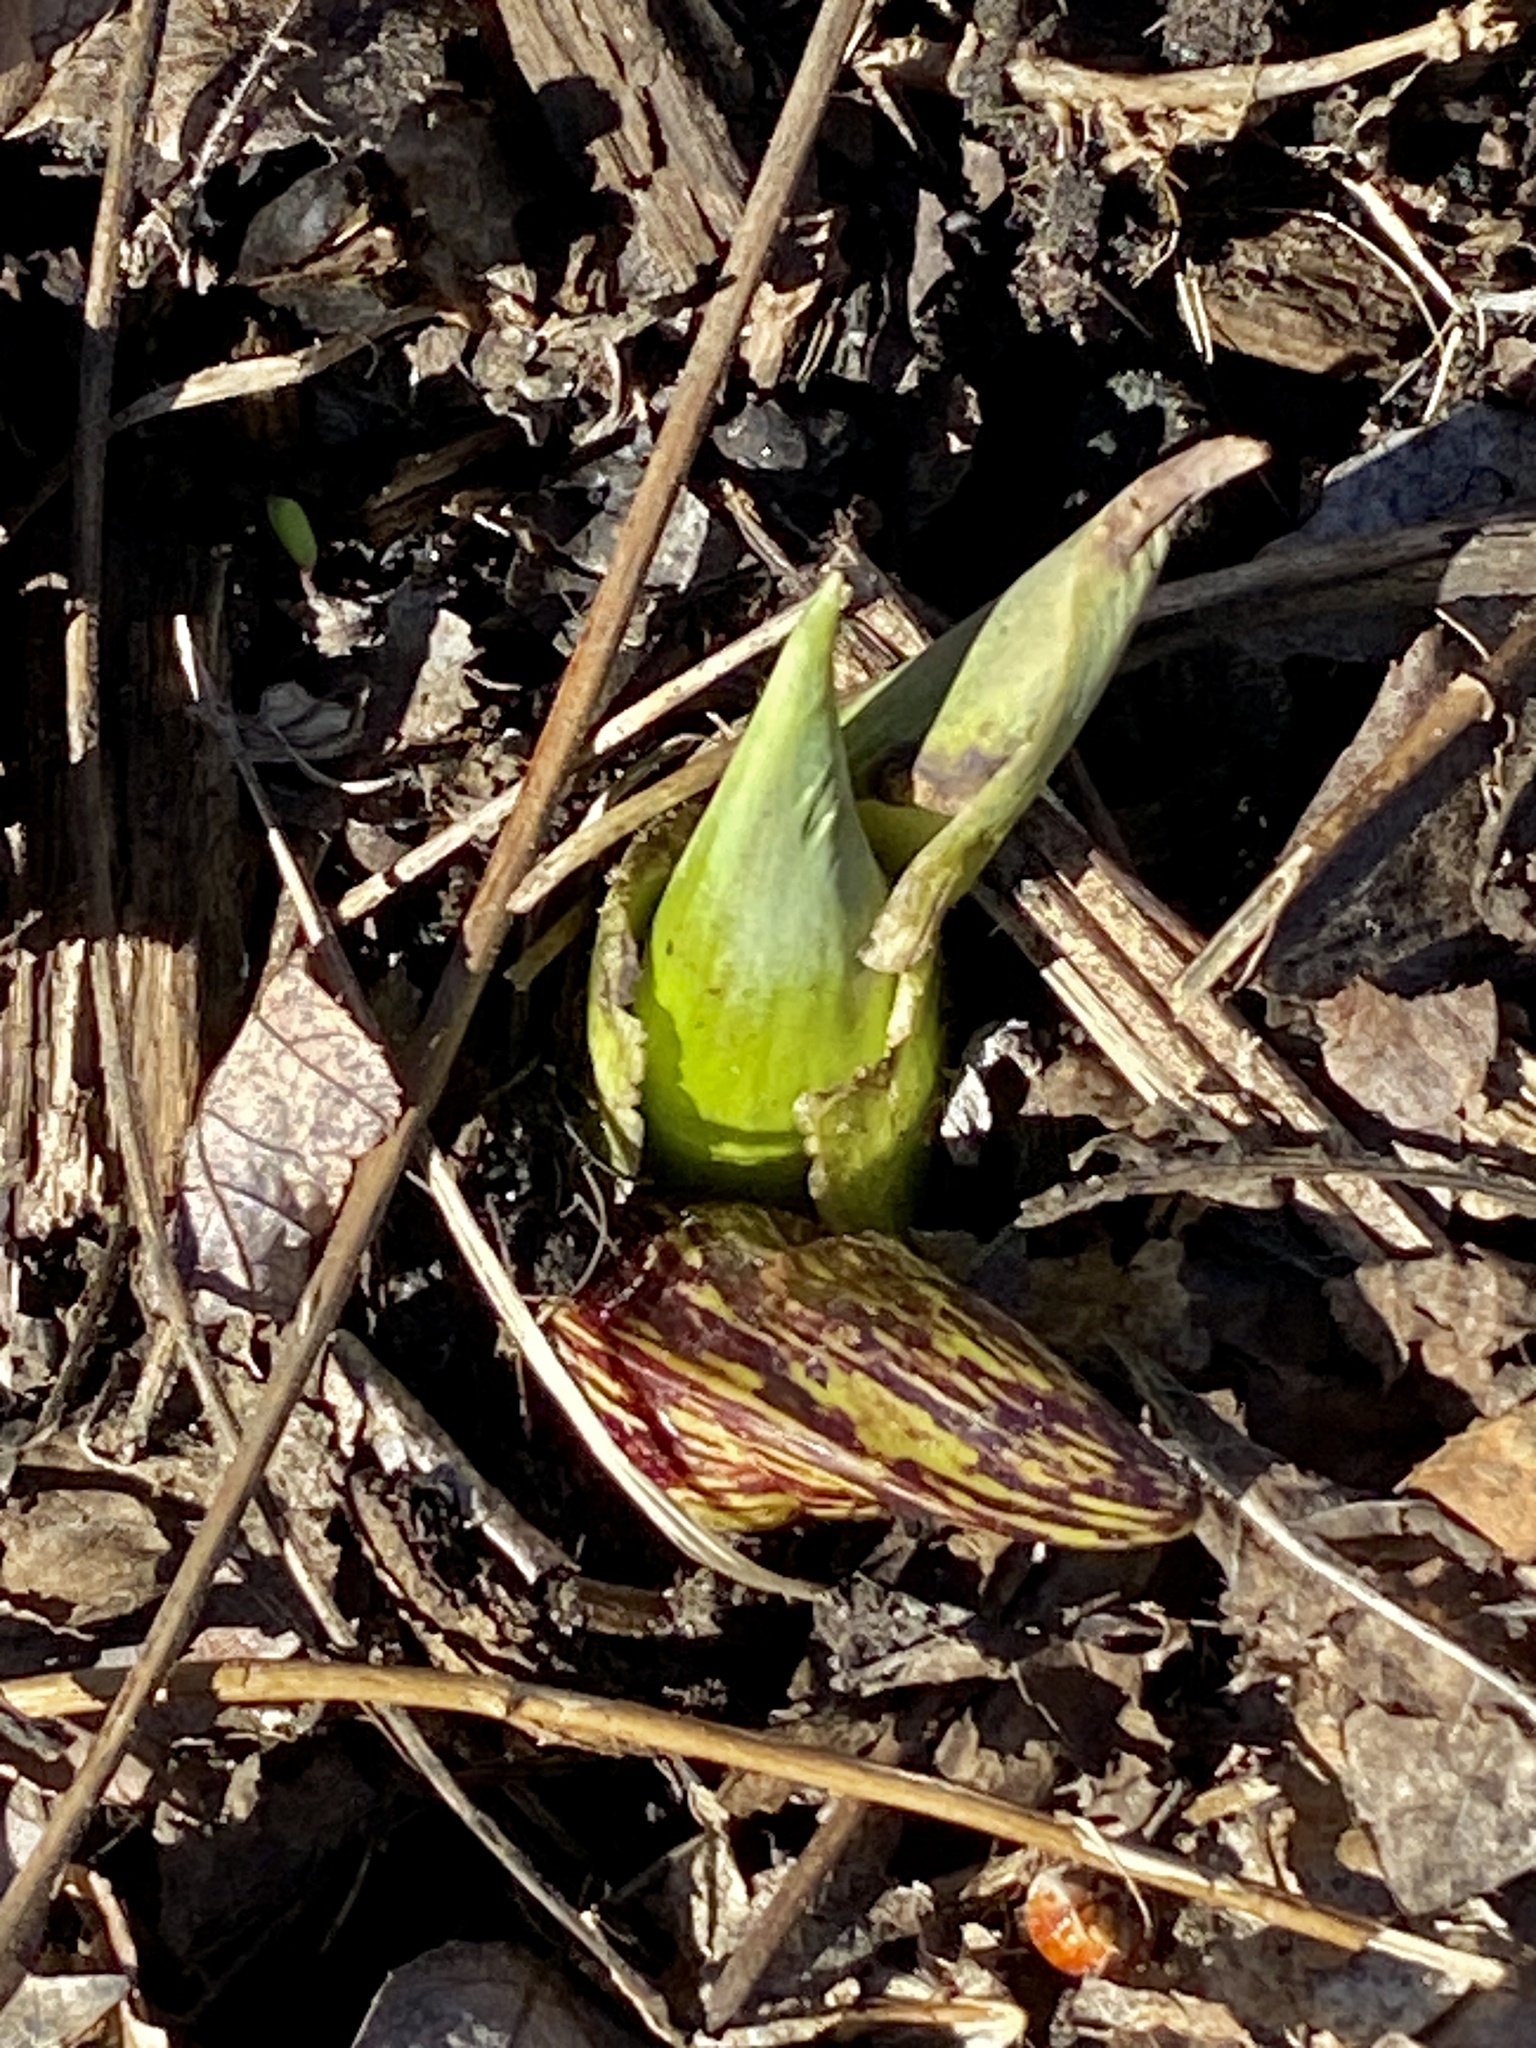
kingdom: Plantae
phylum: Tracheophyta
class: Liliopsida
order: Alismatales
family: Araceae
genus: Symplocarpus
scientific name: Symplocarpus foetidus
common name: Eastern skunk cabbage
